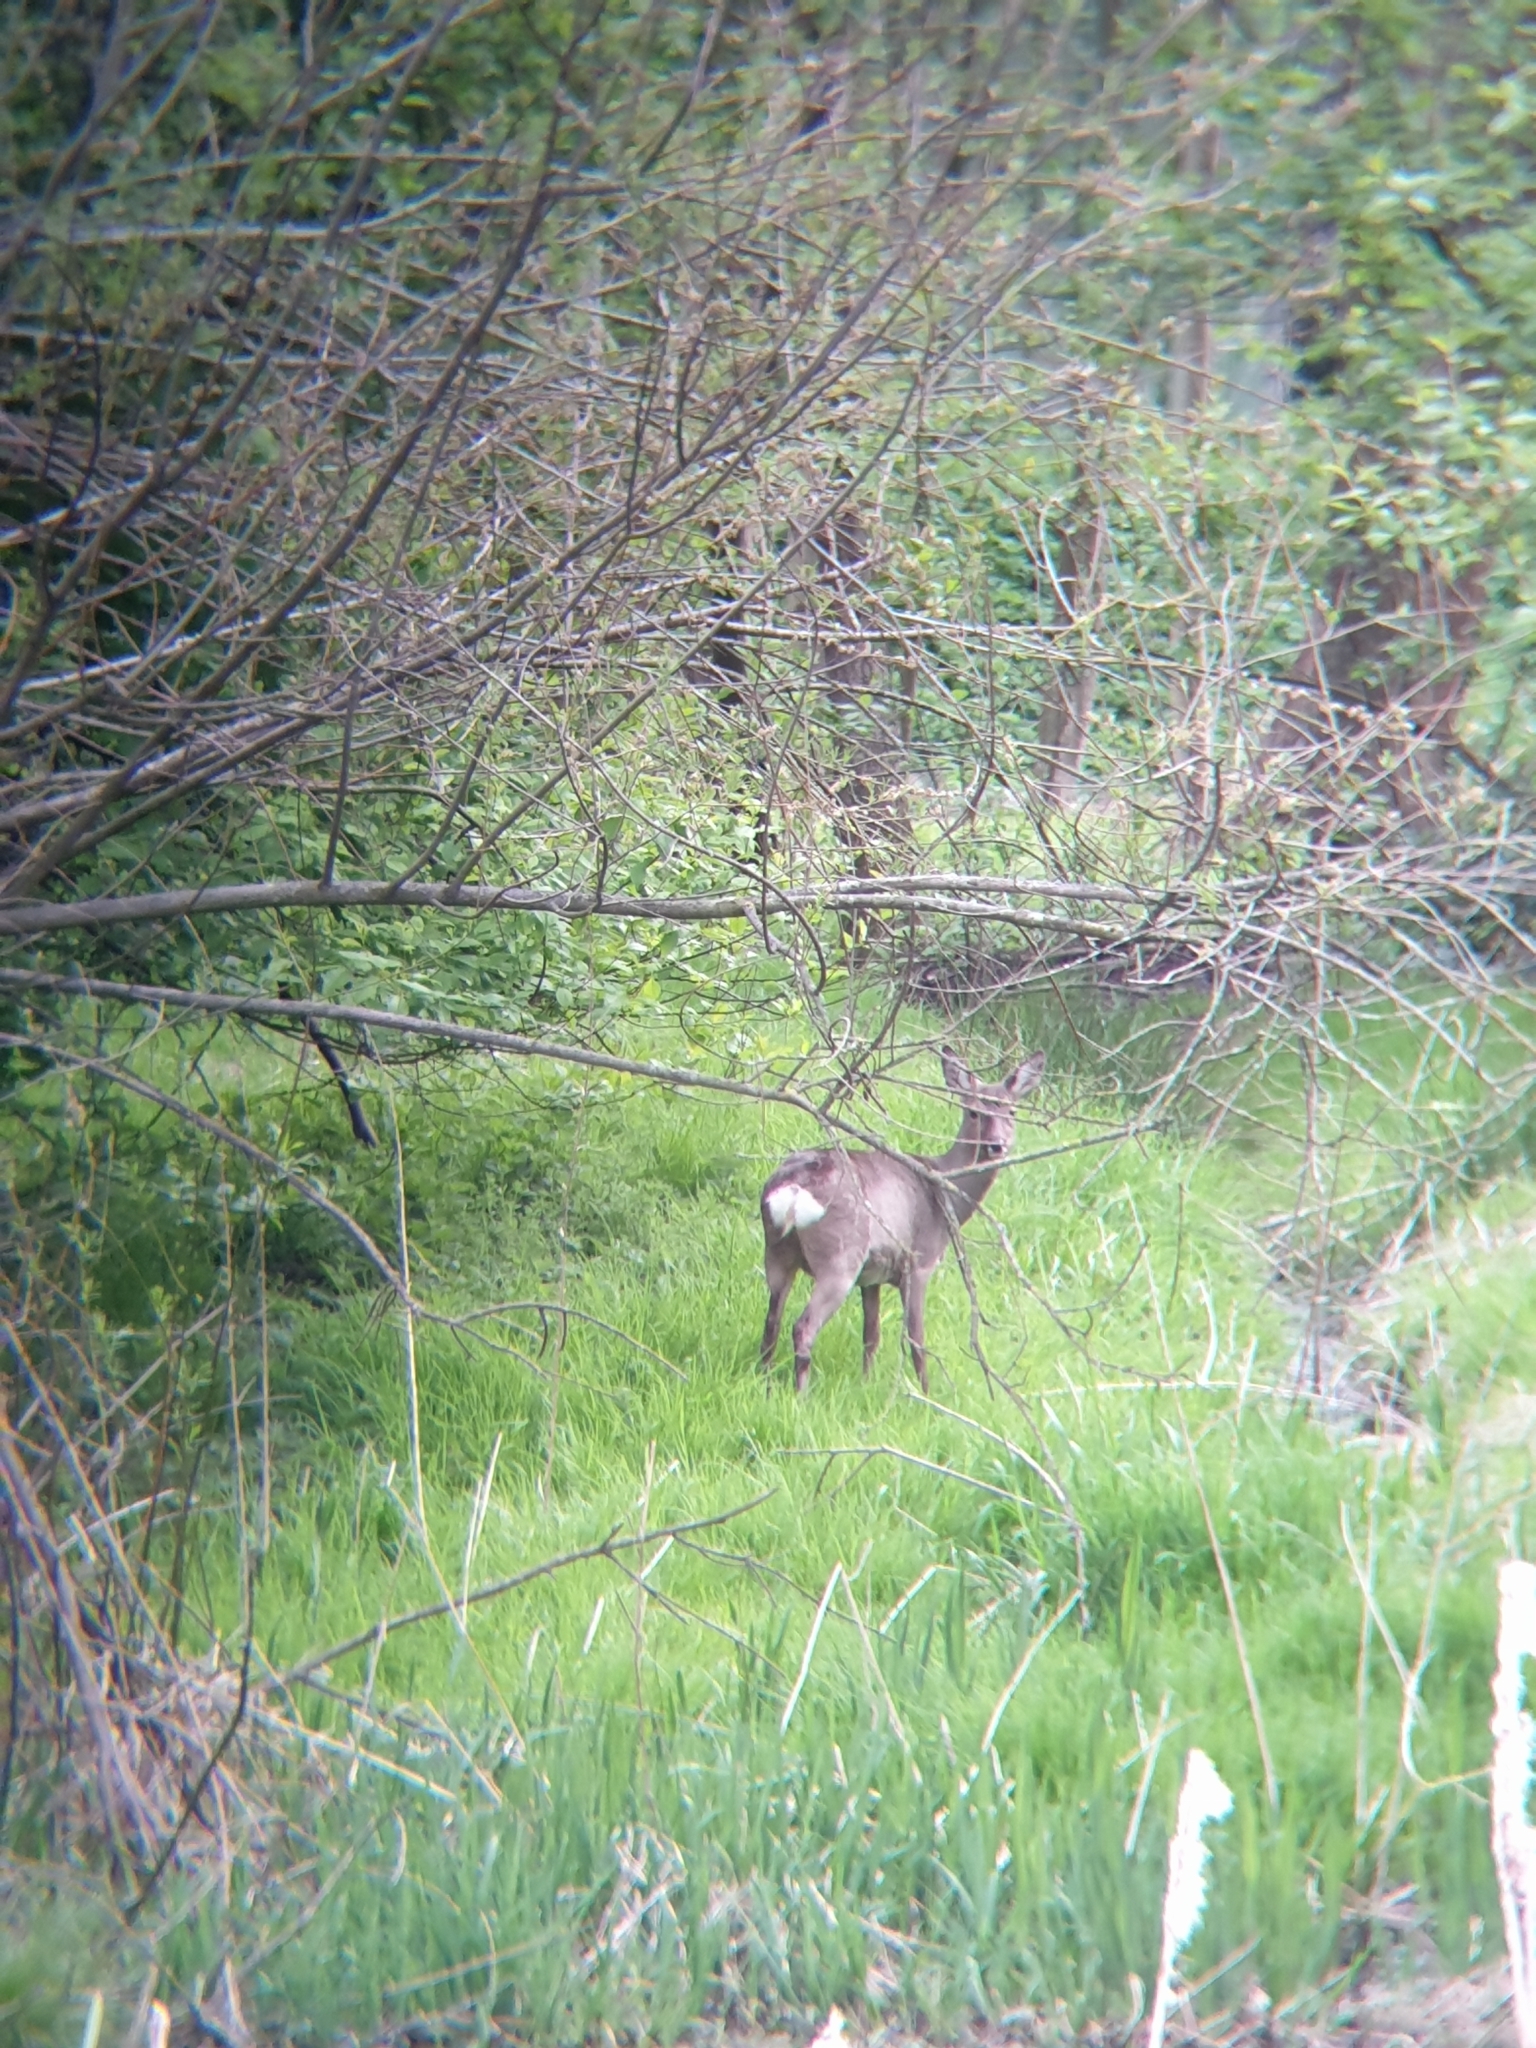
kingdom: Animalia
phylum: Chordata
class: Mammalia
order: Artiodactyla
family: Cervidae
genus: Capreolus
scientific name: Capreolus capreolus
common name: Western roe deer
